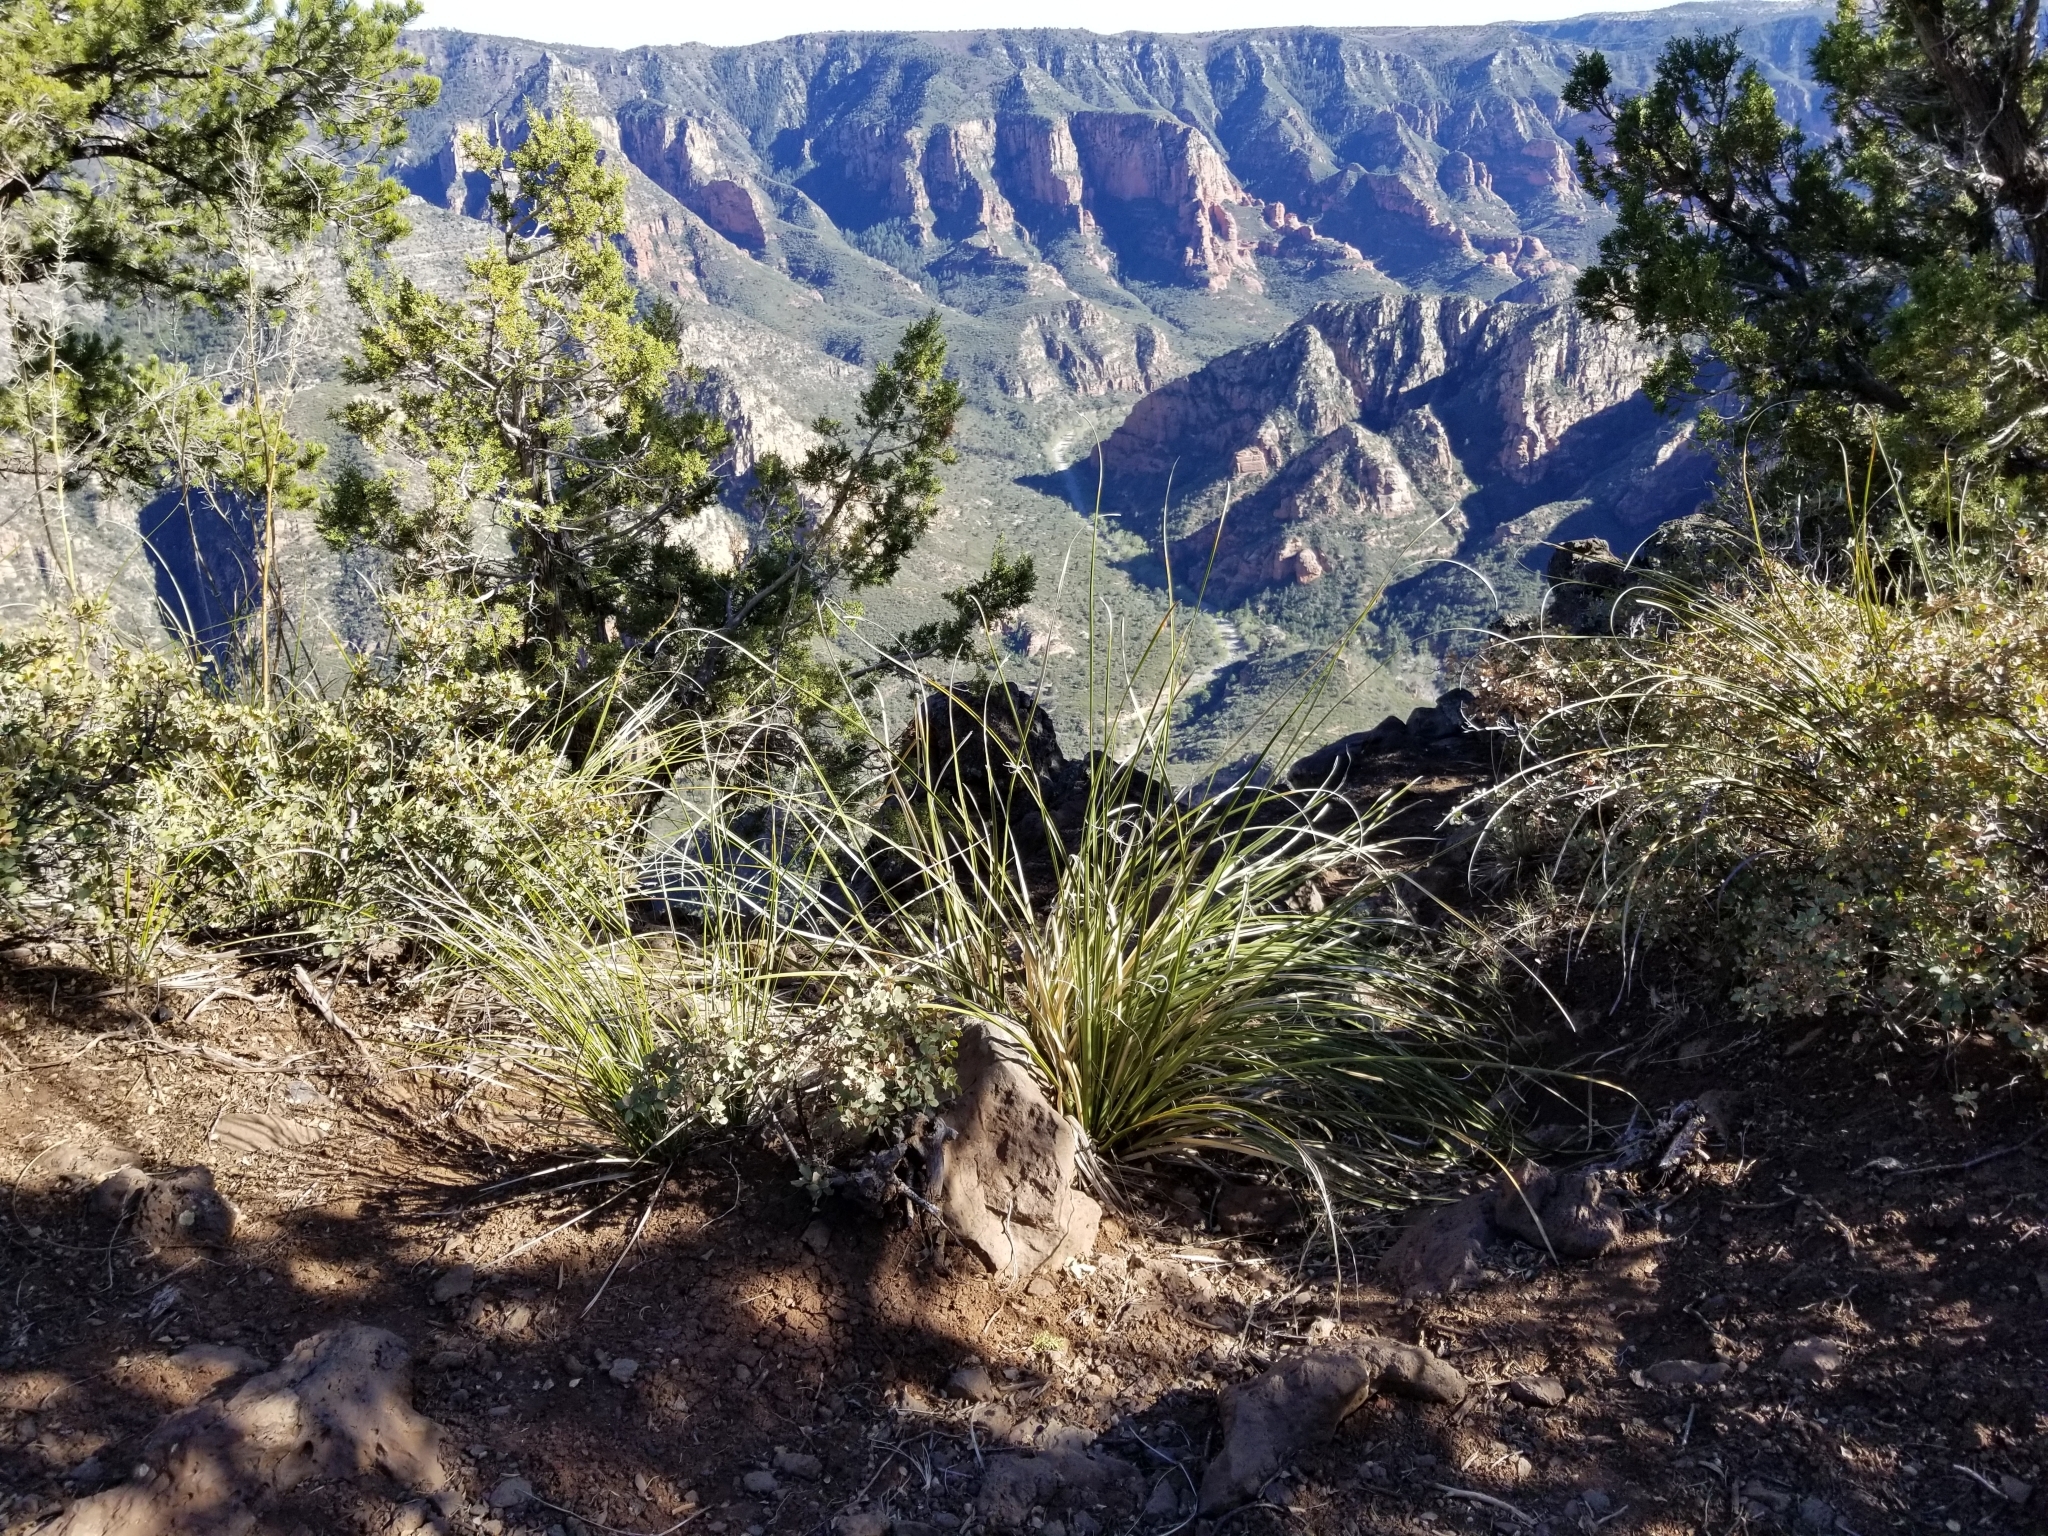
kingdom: Plantae
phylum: Tracheophyta
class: Liliopsida
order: Asparagales
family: Asparagaceae
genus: Nolina
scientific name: Nolina microcarpa
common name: Bear-grass
